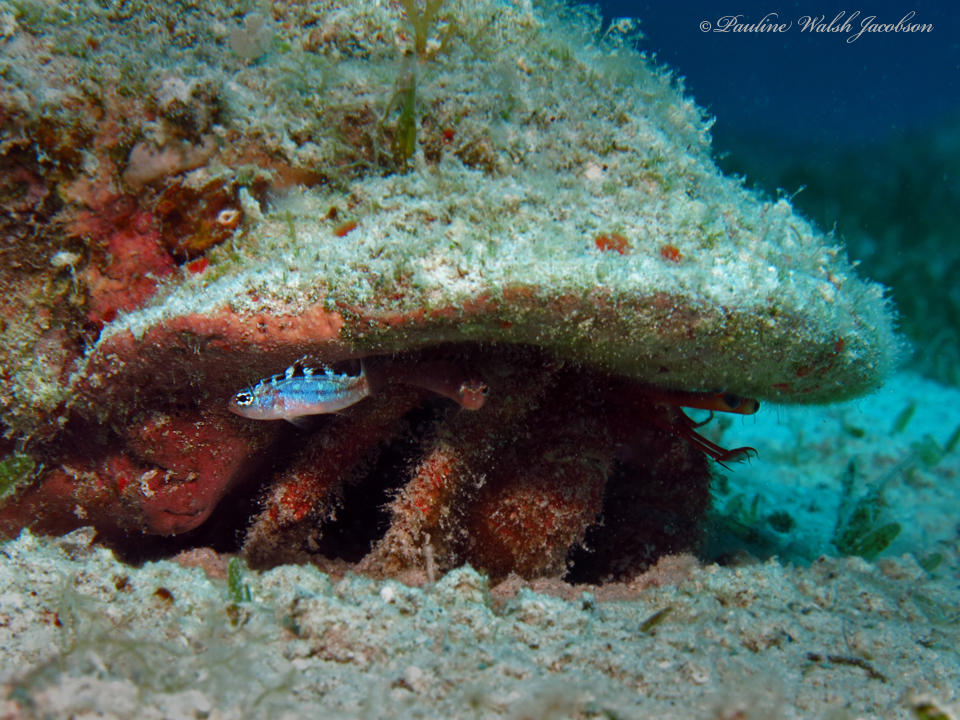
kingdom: Animalia
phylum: Chordata
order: Perciformes
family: Serranidae
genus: Serranus
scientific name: Serranus tortugarum
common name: Chalk bass
